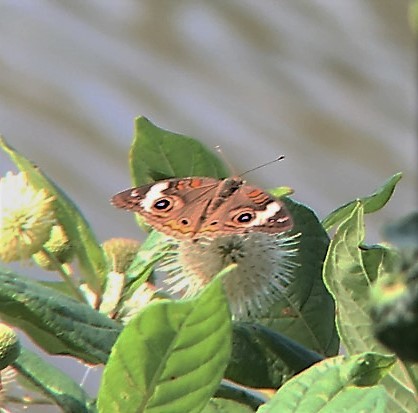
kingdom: Animalia
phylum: Arthropoda
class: Insecta
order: Lepidoptera
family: Nymphalidae
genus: Junonia
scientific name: Junonia coenia
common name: Common buckeye
